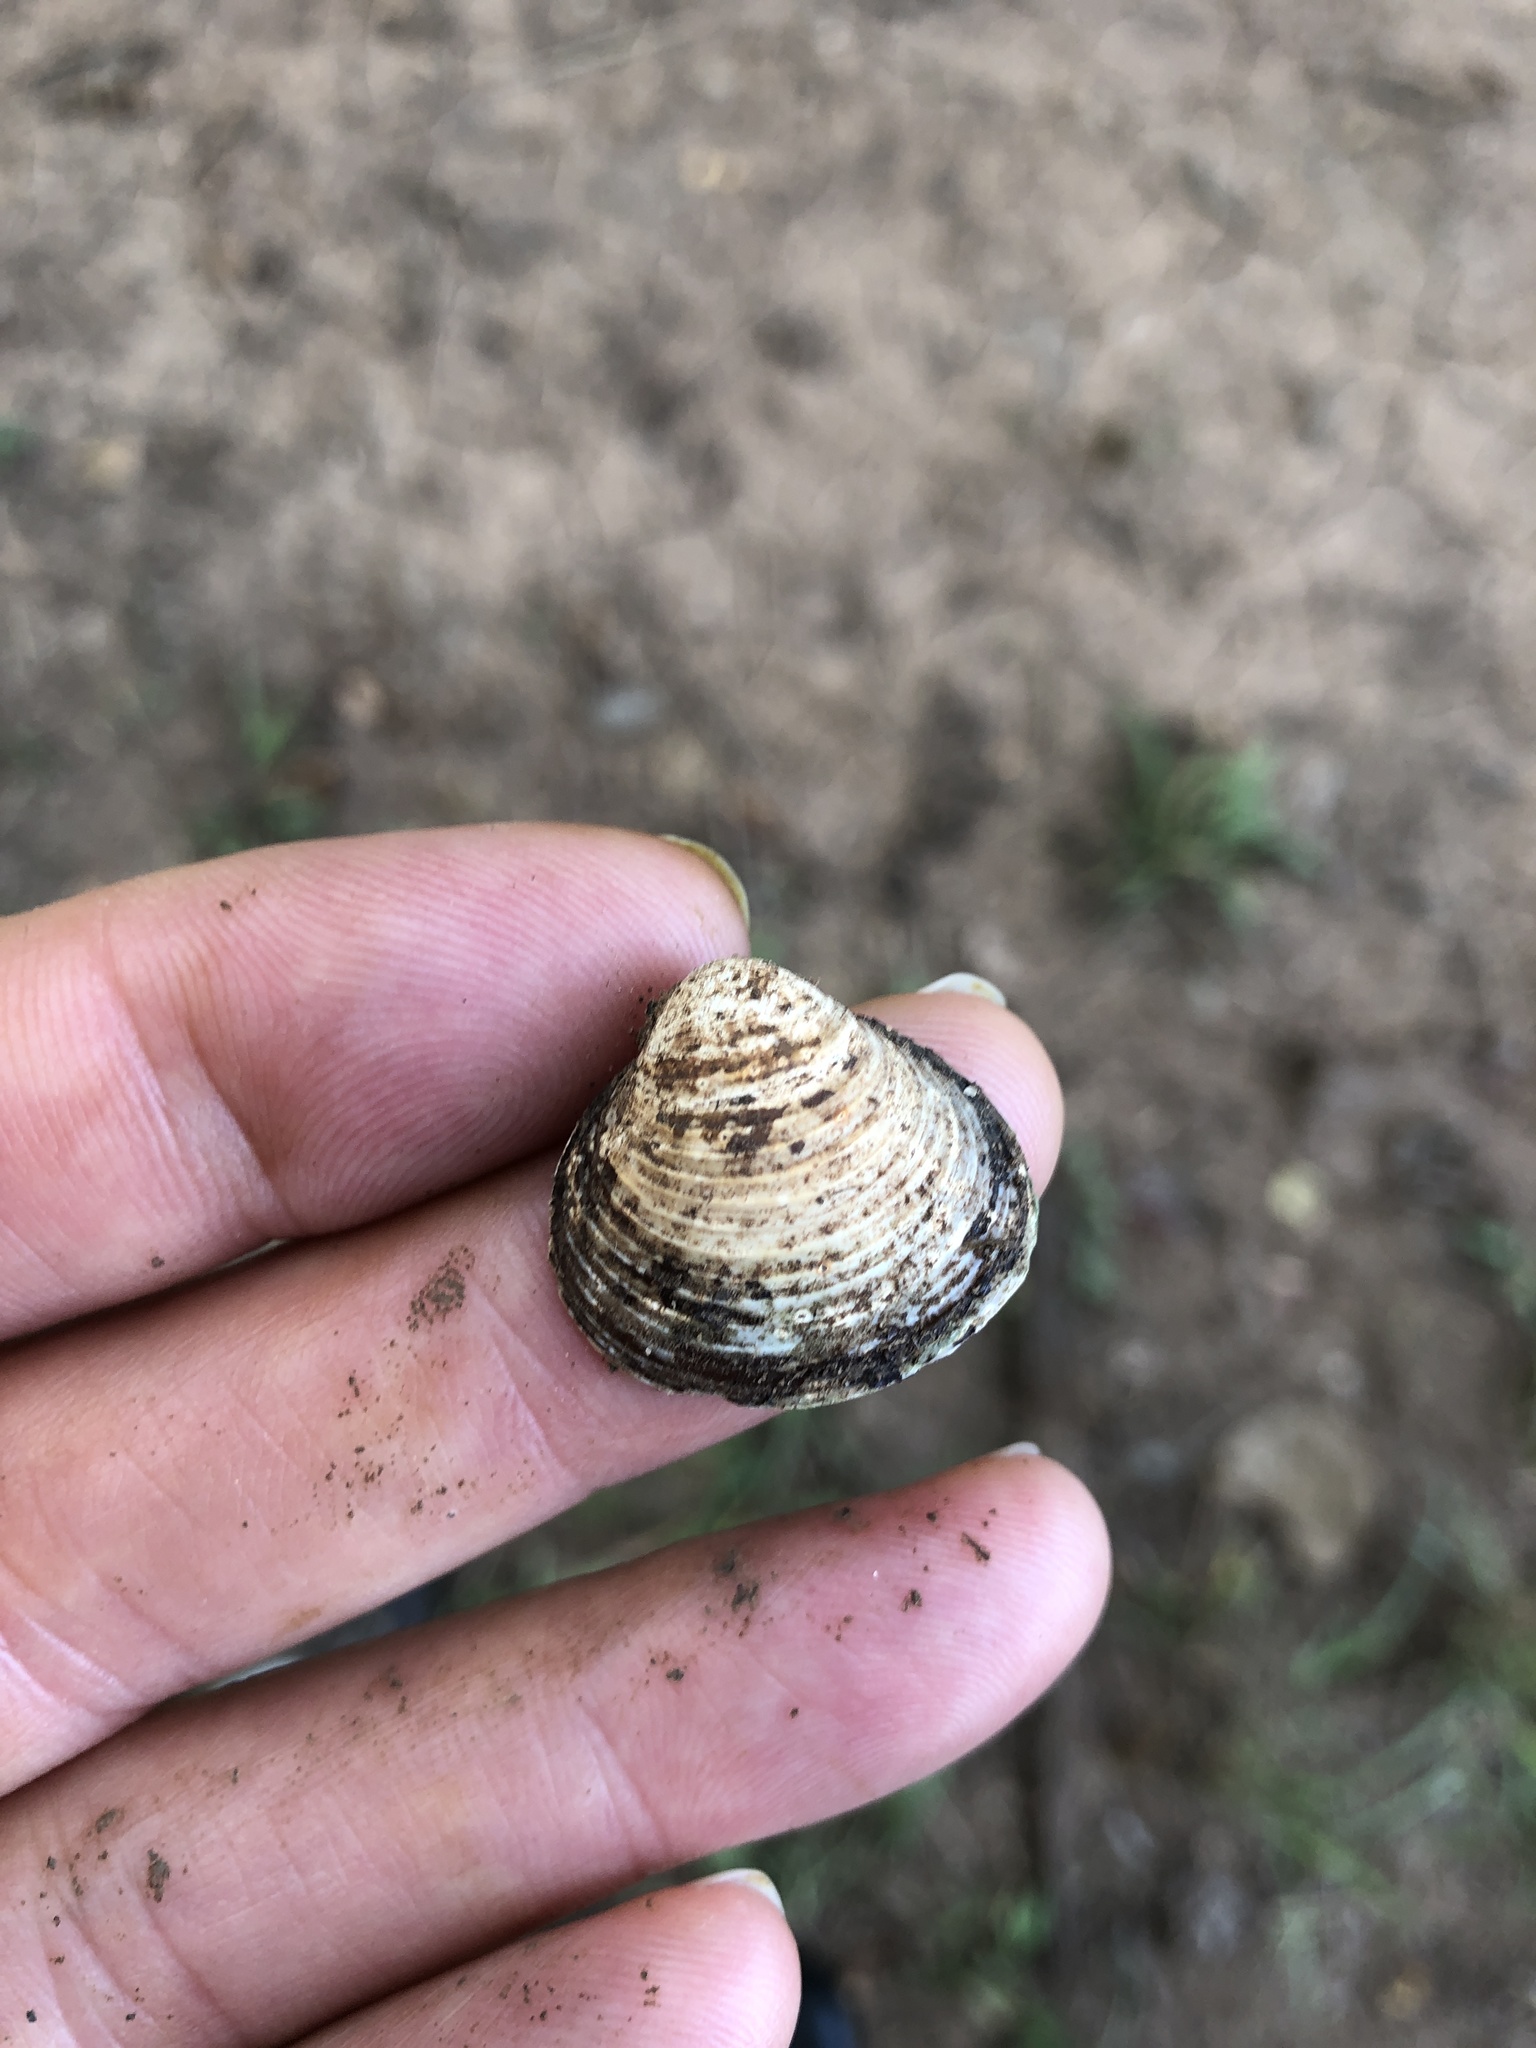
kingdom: Animalia
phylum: Mollusca
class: Bivalvia
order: Venerida
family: Cyrenidae
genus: Corbicula
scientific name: Corbicula fluminea
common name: Asian clam
